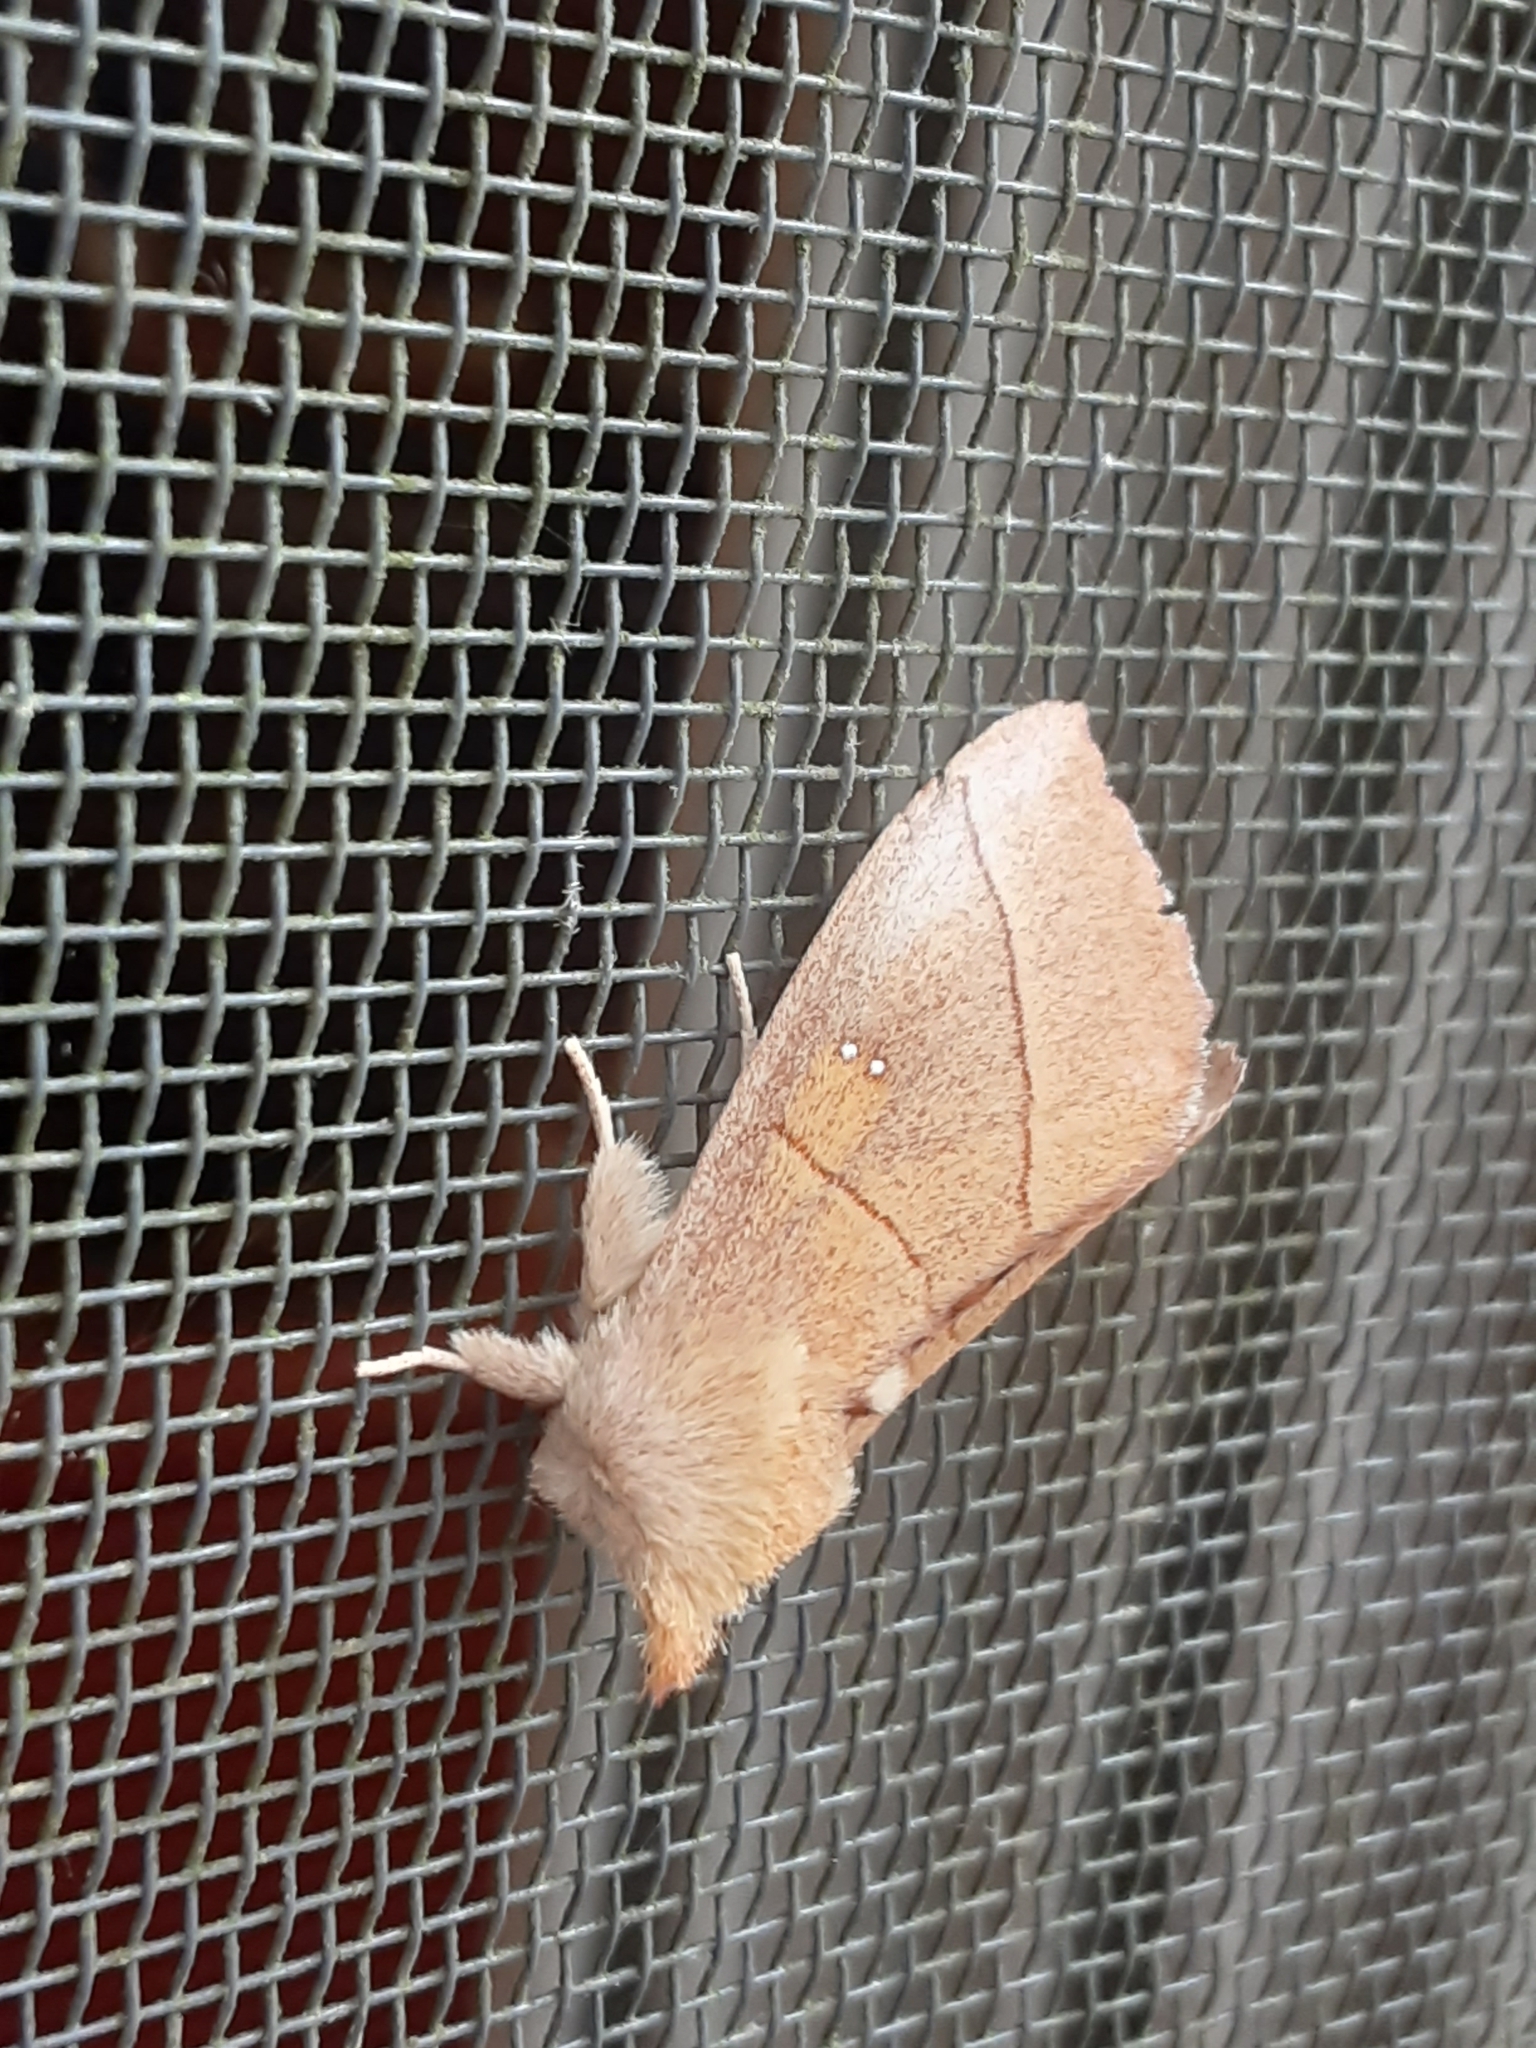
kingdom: Animalia
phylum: Arthropoda
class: Insecta
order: Lepidoptera
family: Notodontidae
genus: Nadata
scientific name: Nadata gibbosa
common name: White-dotted prominent
